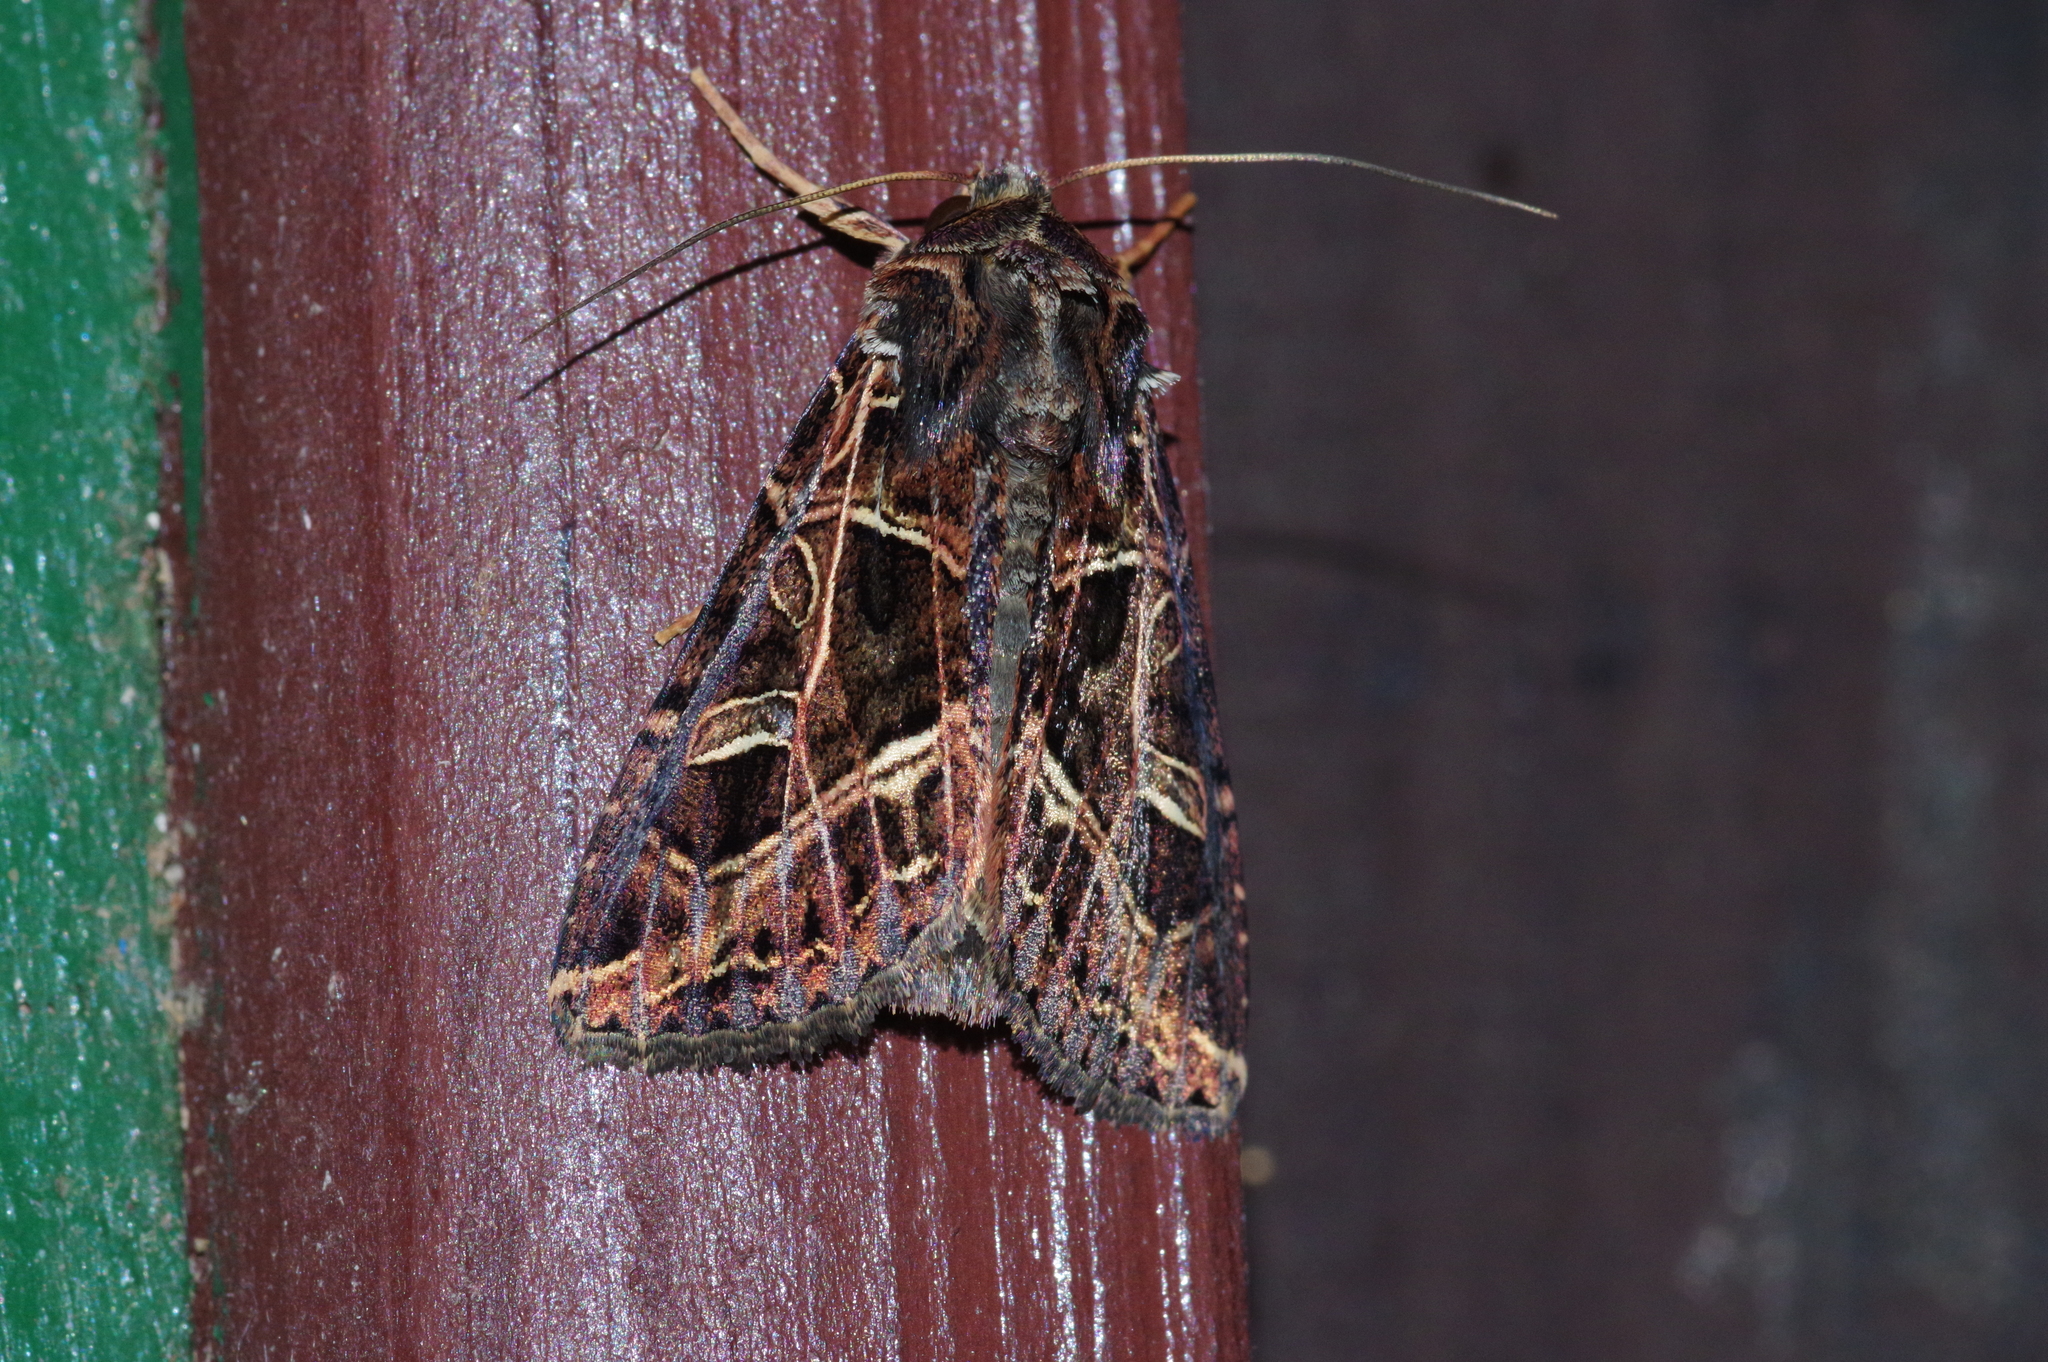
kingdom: Animalia
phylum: Arthropoda
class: Insecta
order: Lepidoptera
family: Noctuidae
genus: Dictyestra
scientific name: Dictyestra dissectus
